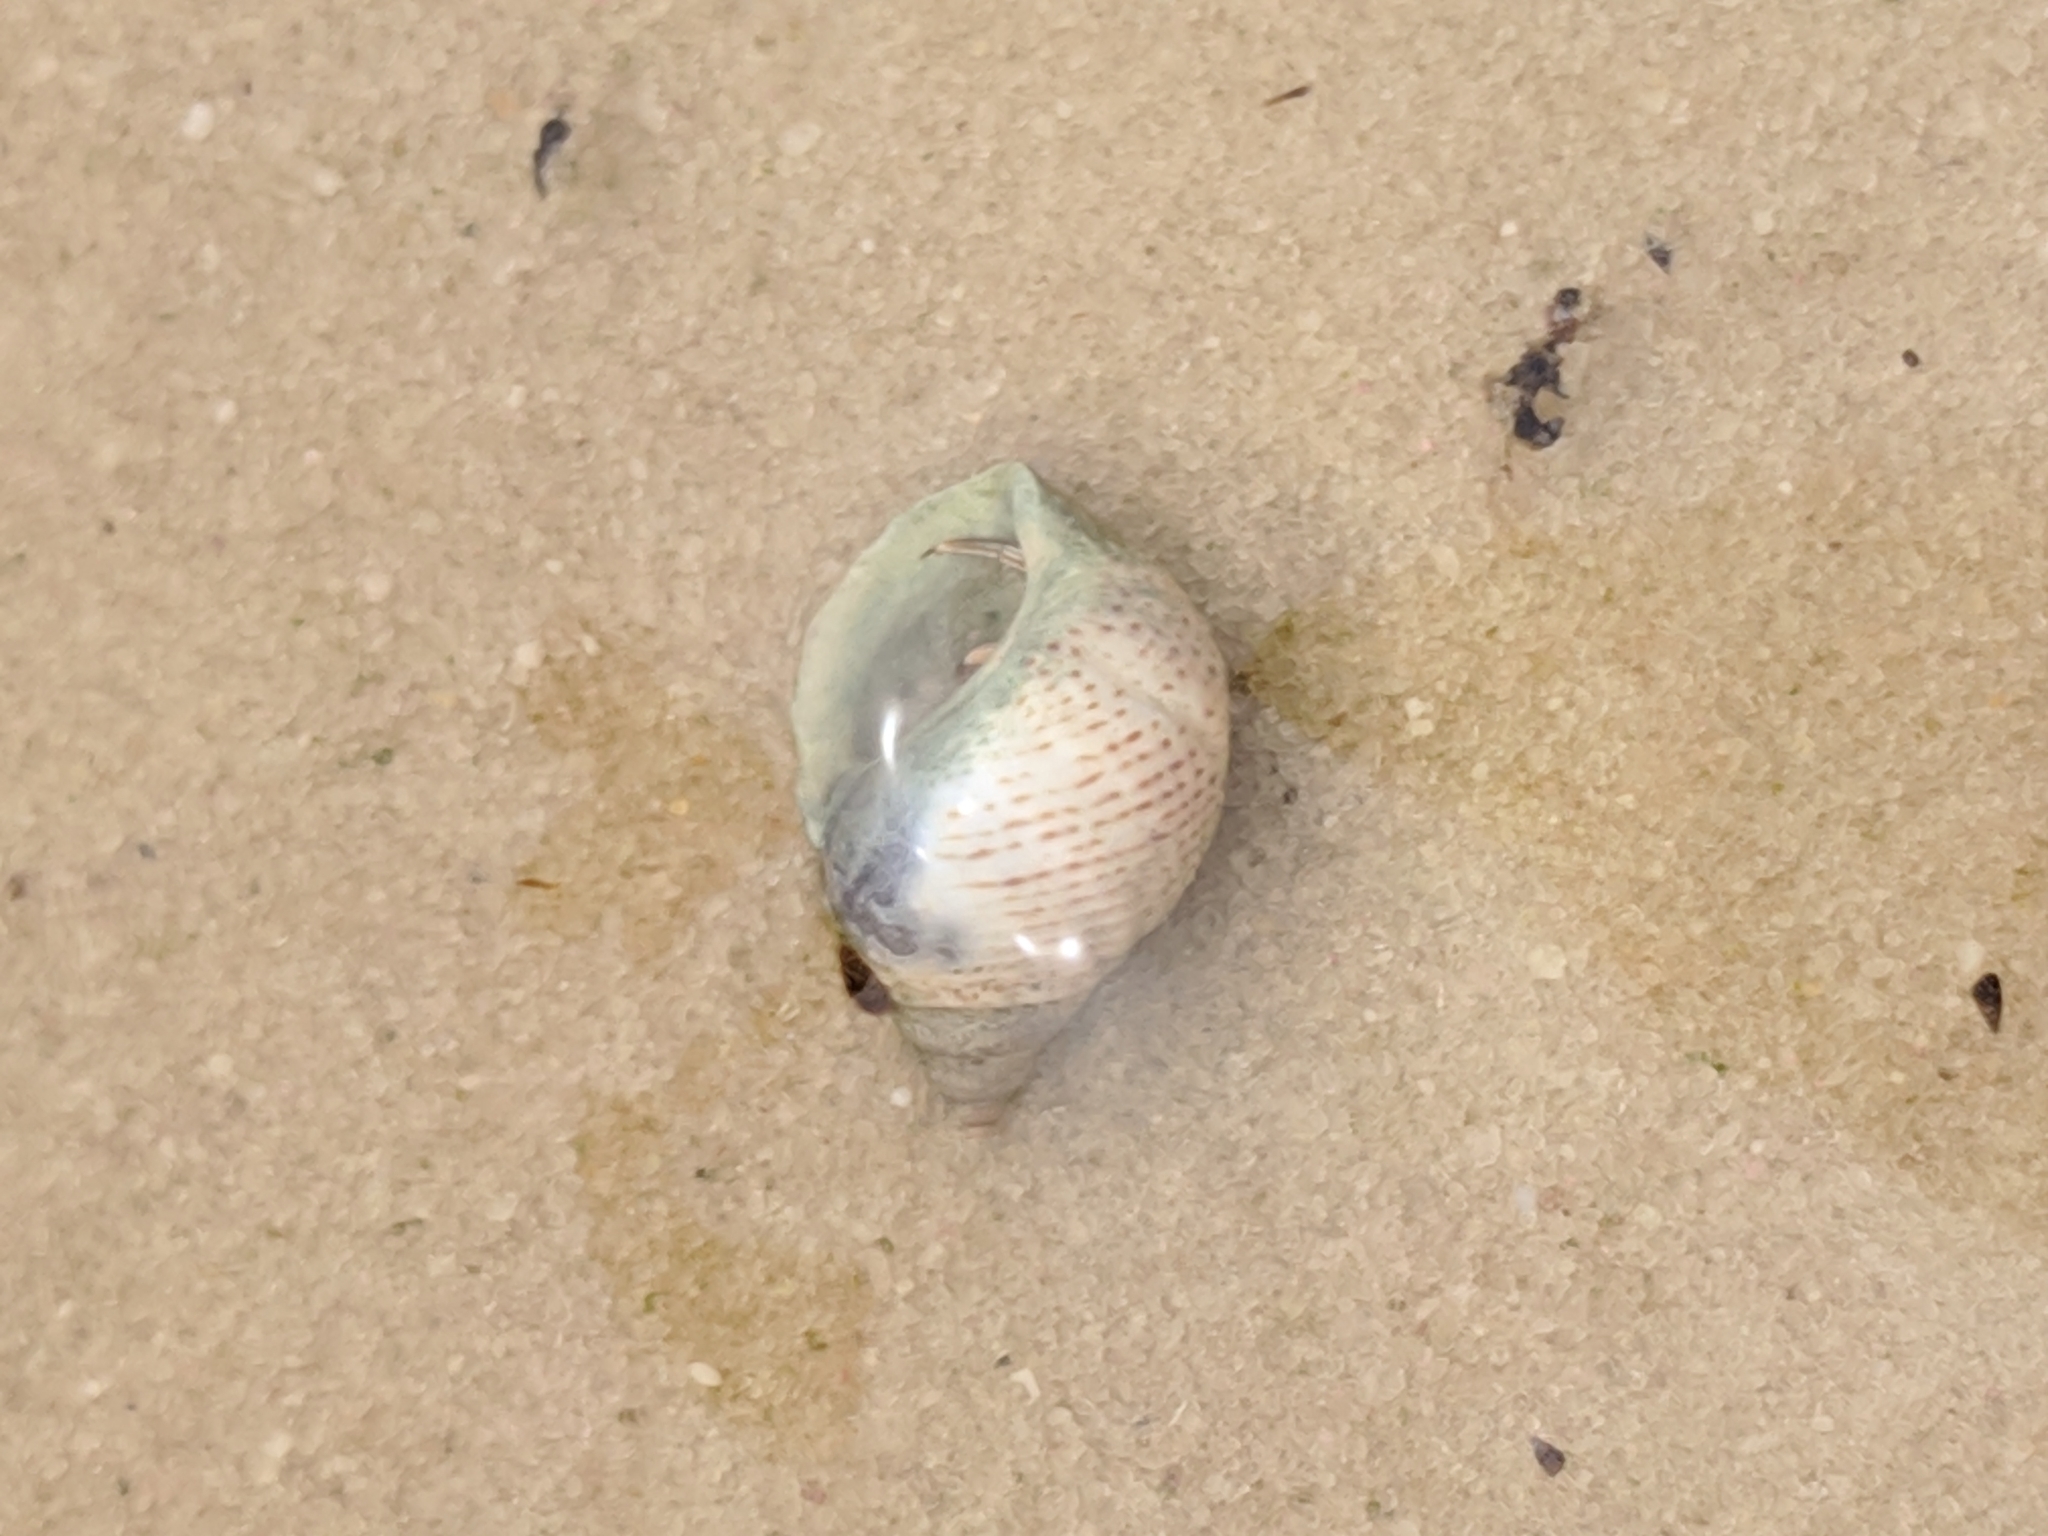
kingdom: Animalia
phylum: Mollusca
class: Gastropoda
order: Littorinimorpha
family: Littorinidae
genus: Littoraria
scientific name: Littoraria irrorata
